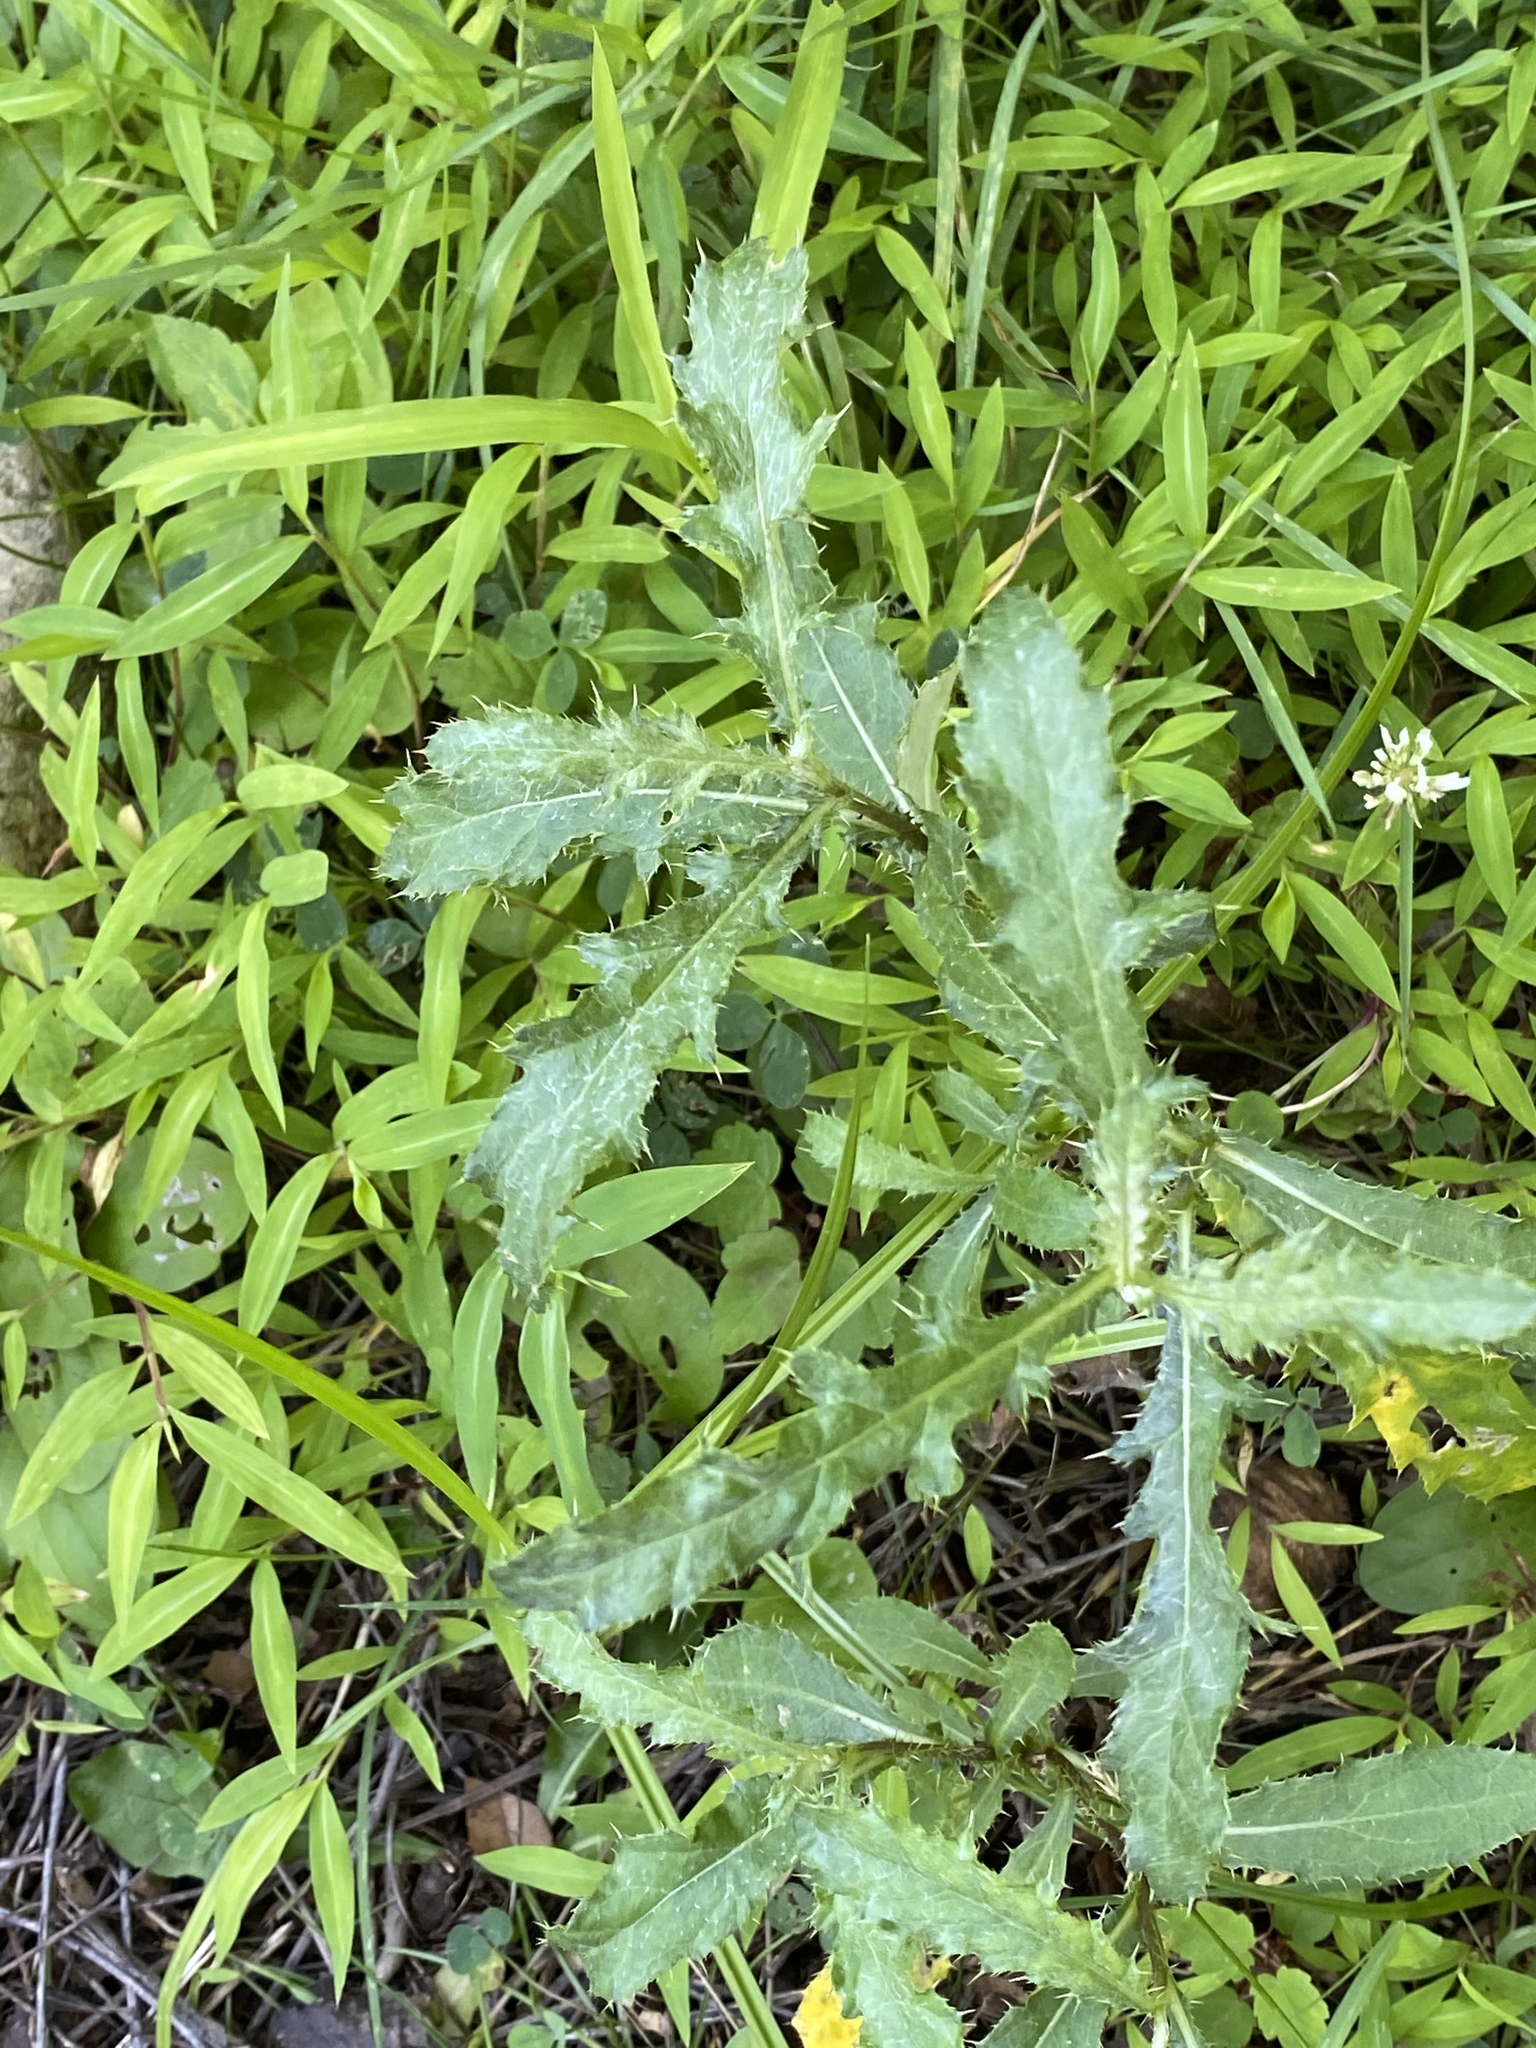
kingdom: Plantae
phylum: Tracheophyta
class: Magnoliopsida
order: Asterales
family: Asteraceae
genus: Cirsium
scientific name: Cirsium arvense
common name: Creeping thistle
